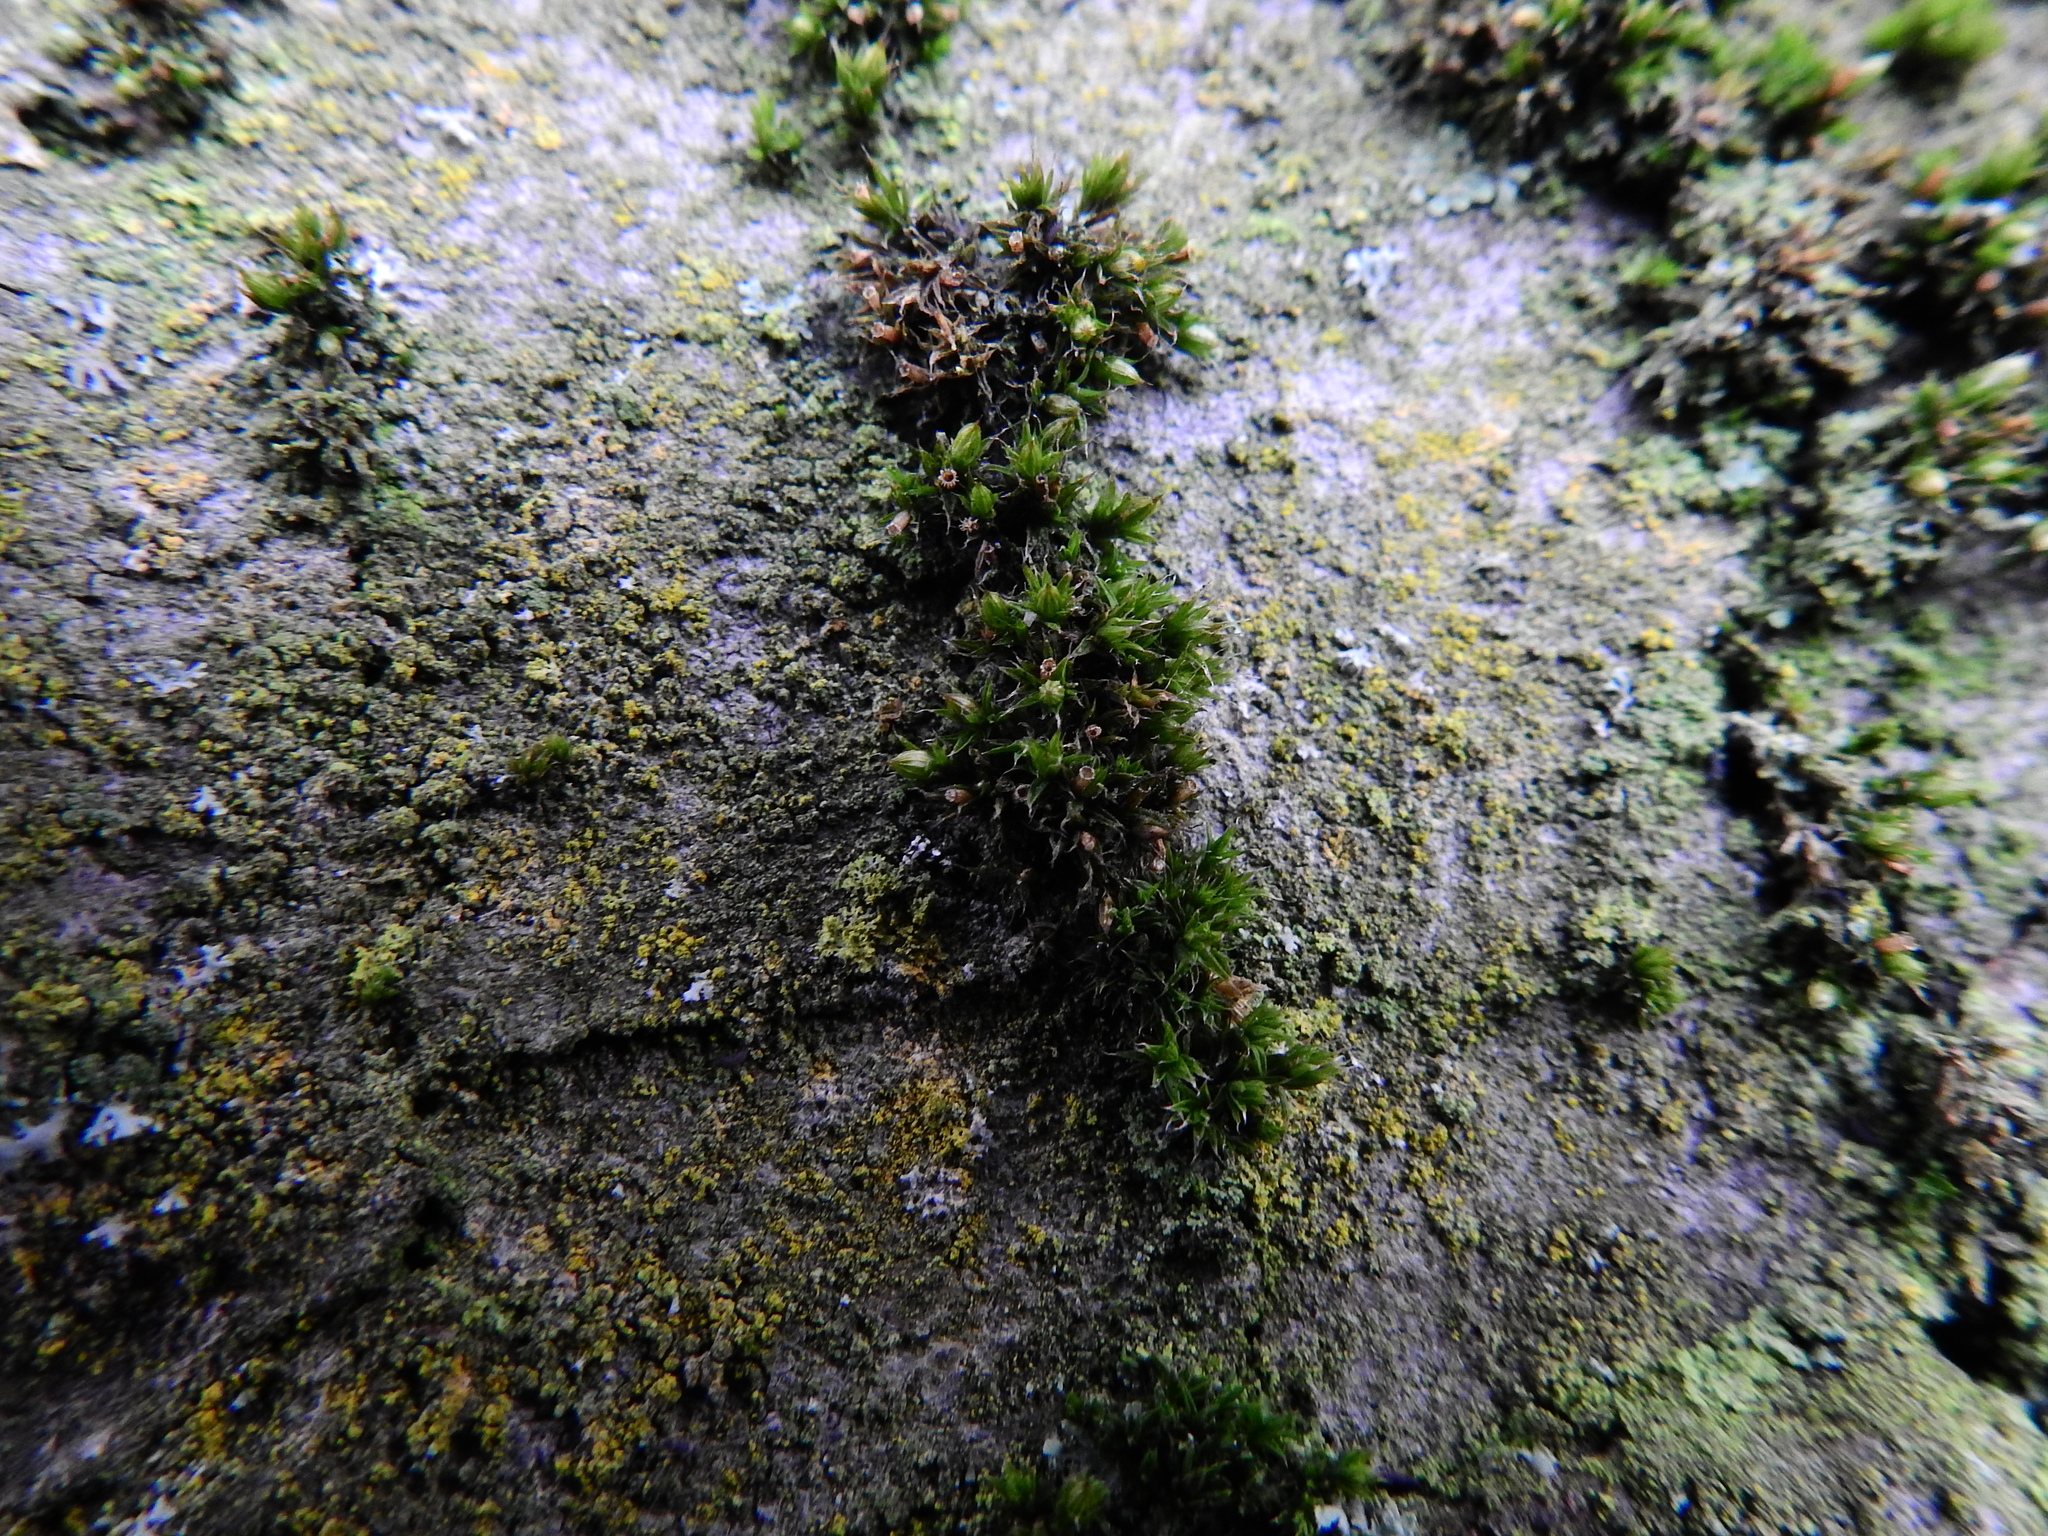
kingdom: Plantae
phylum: Bryophyta
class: Bryopsida
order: Orthotrichales
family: Orthotrichaceae
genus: Orthotrichum
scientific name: Orthotrichum diaphanum
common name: White-tipped bristle-moss
